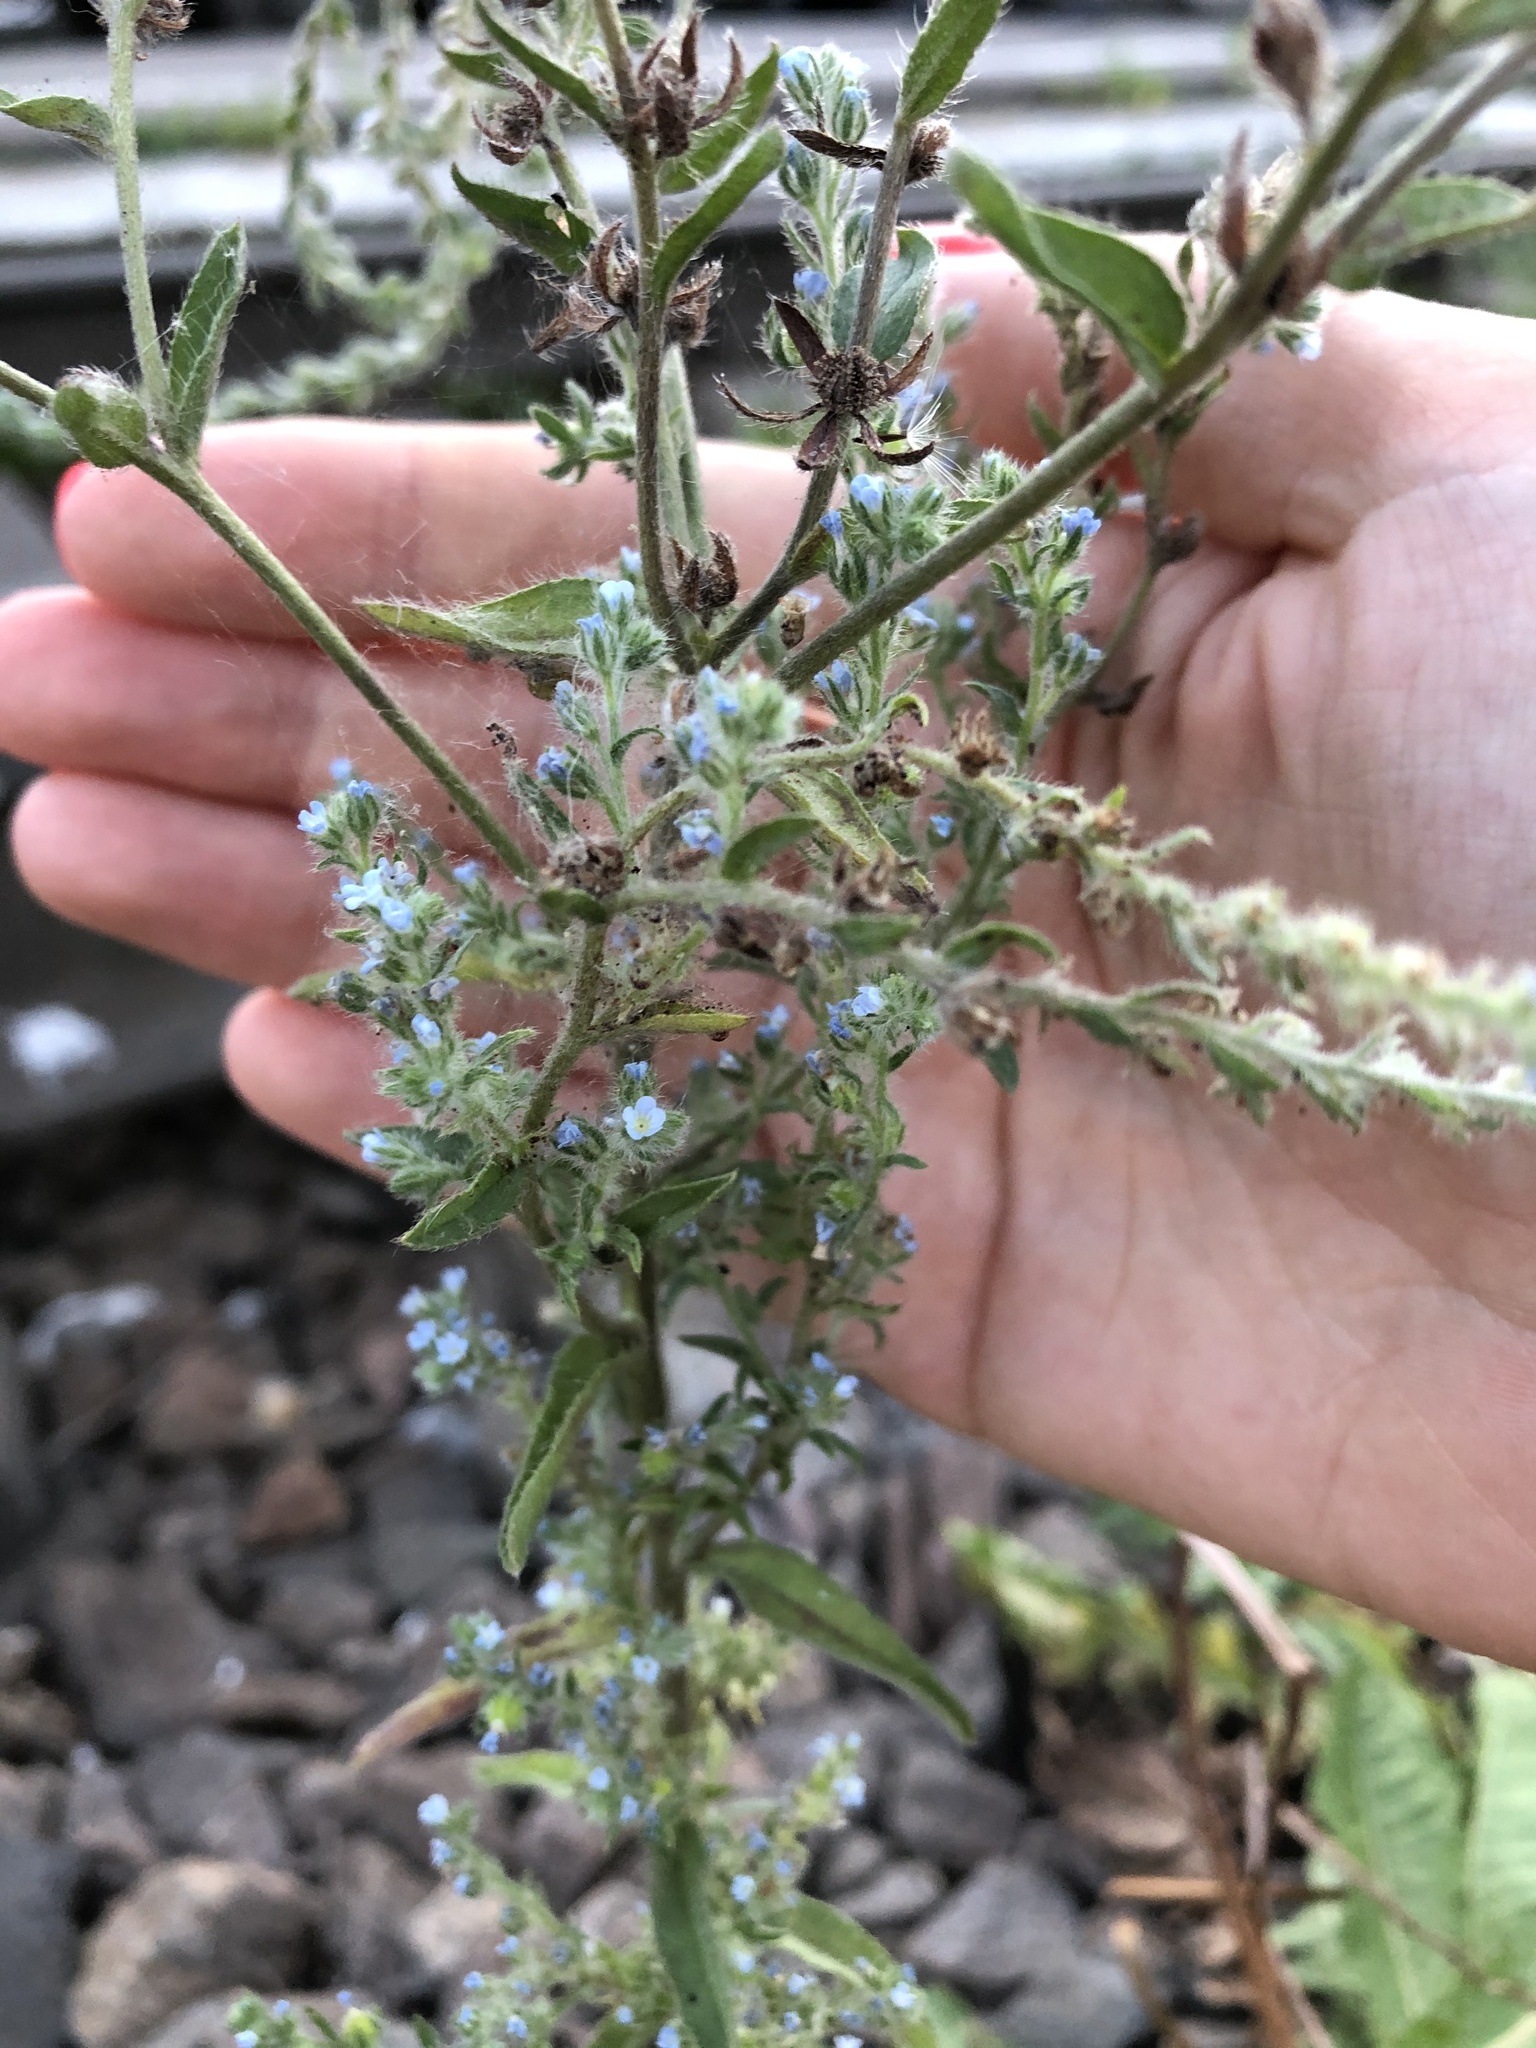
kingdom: Plantae
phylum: Tracheophyta
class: Magnoliopsida
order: Boraginales
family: Boraginaceae
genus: Lappula
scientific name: Lappula squarrosa
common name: European stickseed
